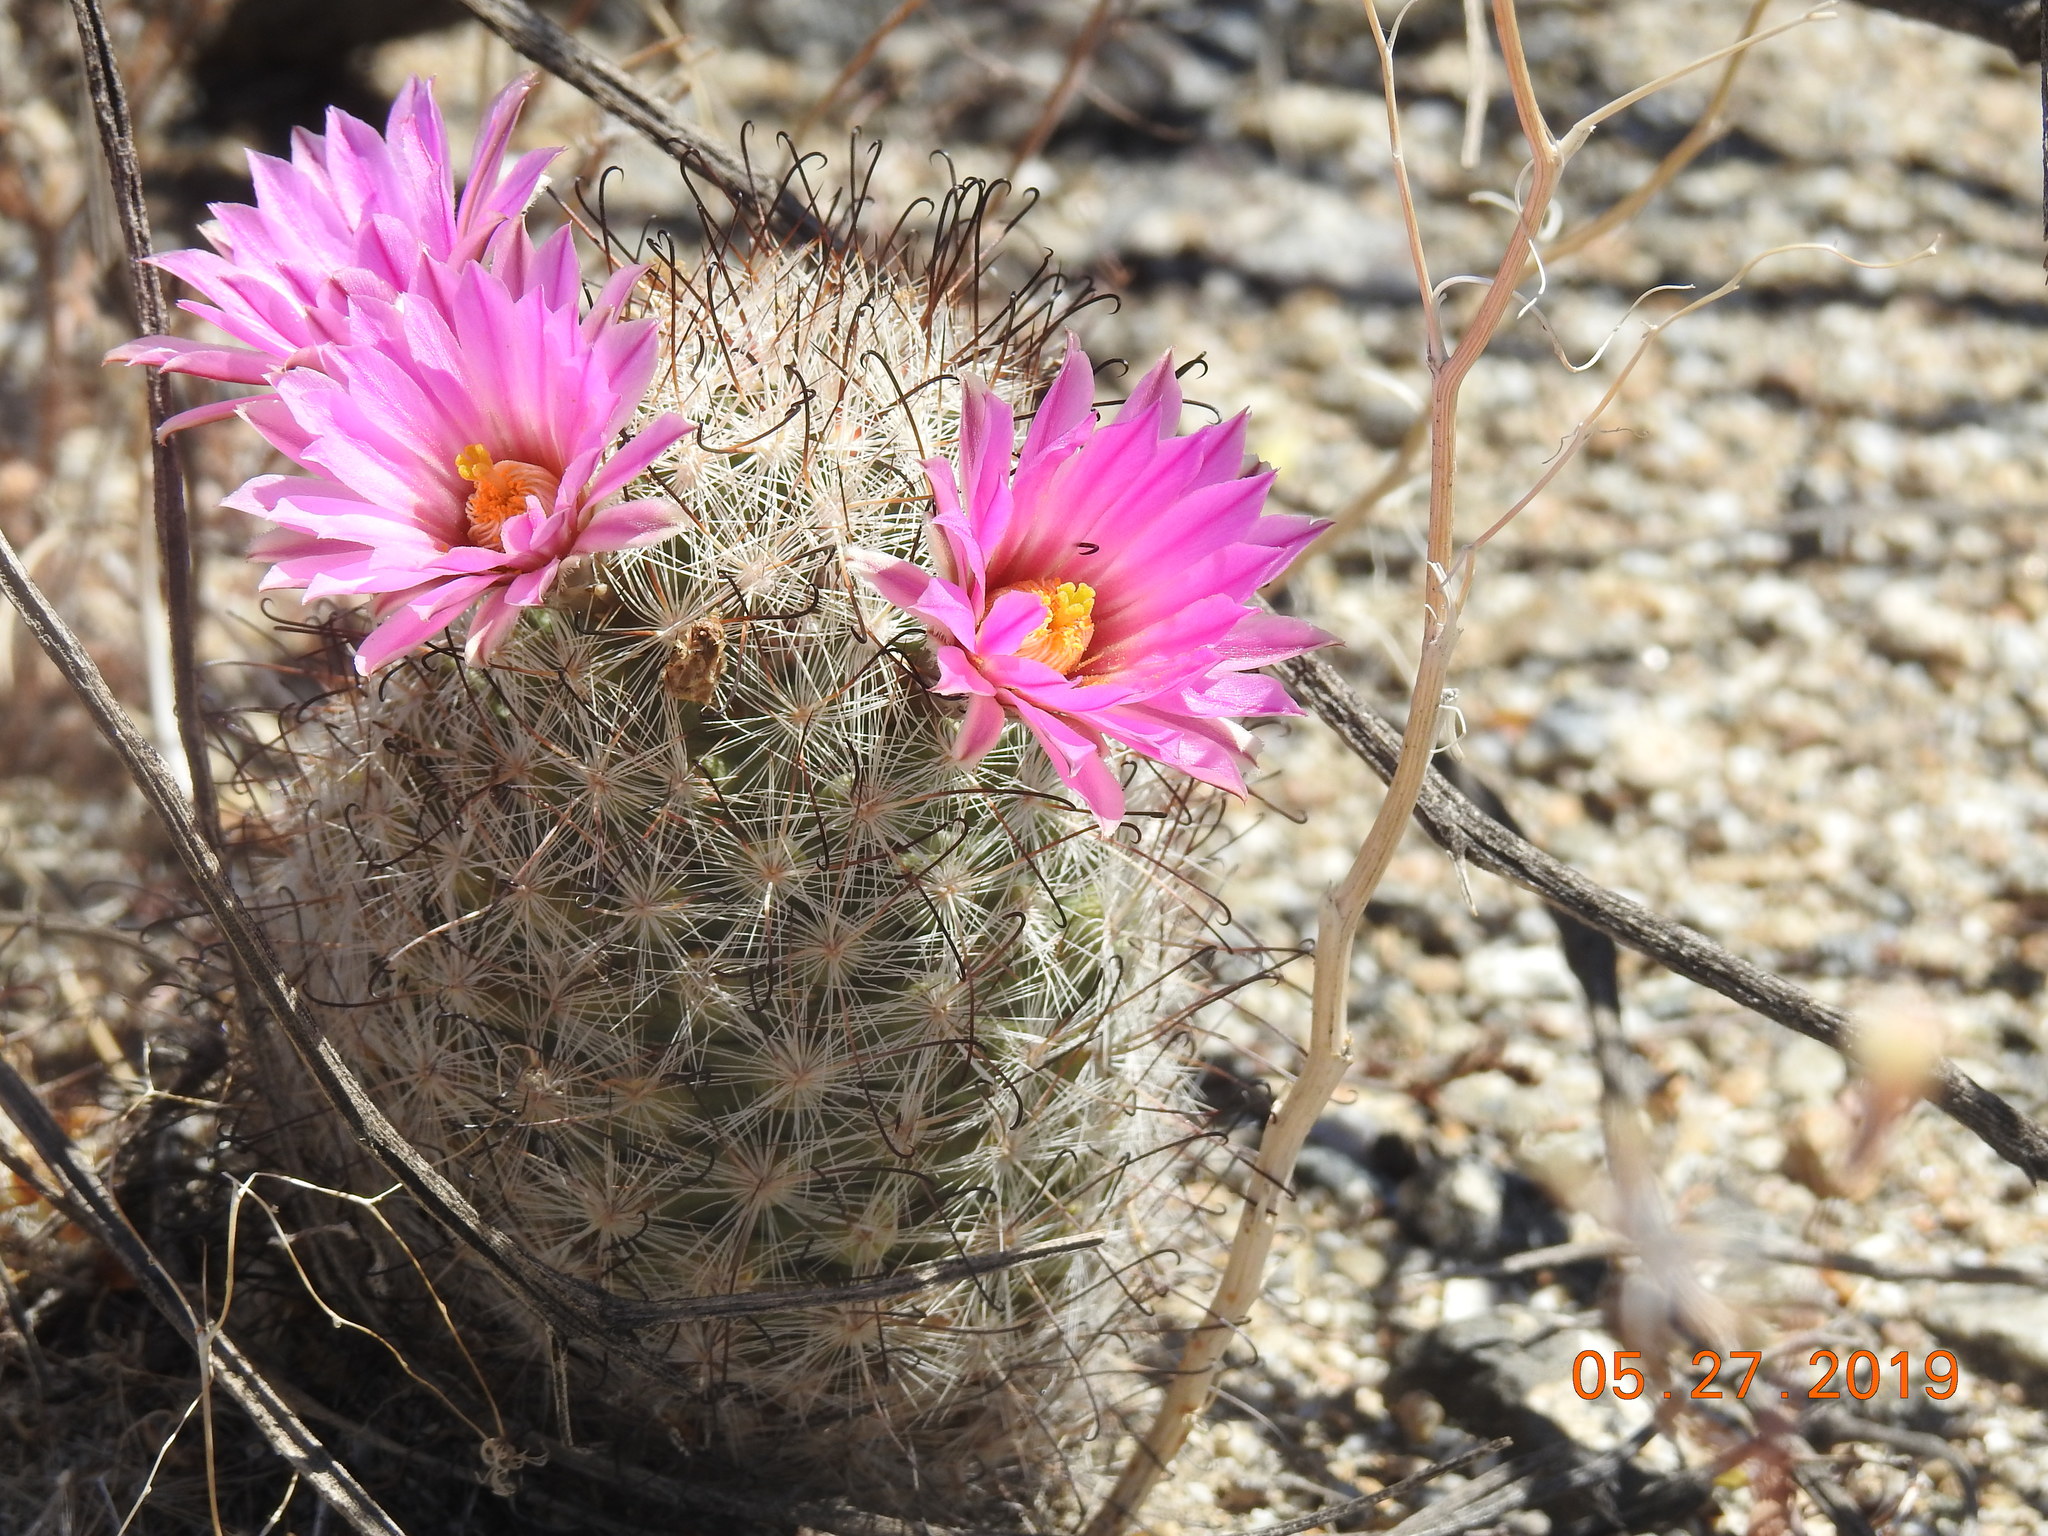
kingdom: Plantae
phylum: Tracheophyta
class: Magnoliopsida
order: Caryophyllales
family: Cactaceae
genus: Cochemiea
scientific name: Cochemiea tetrancistra
